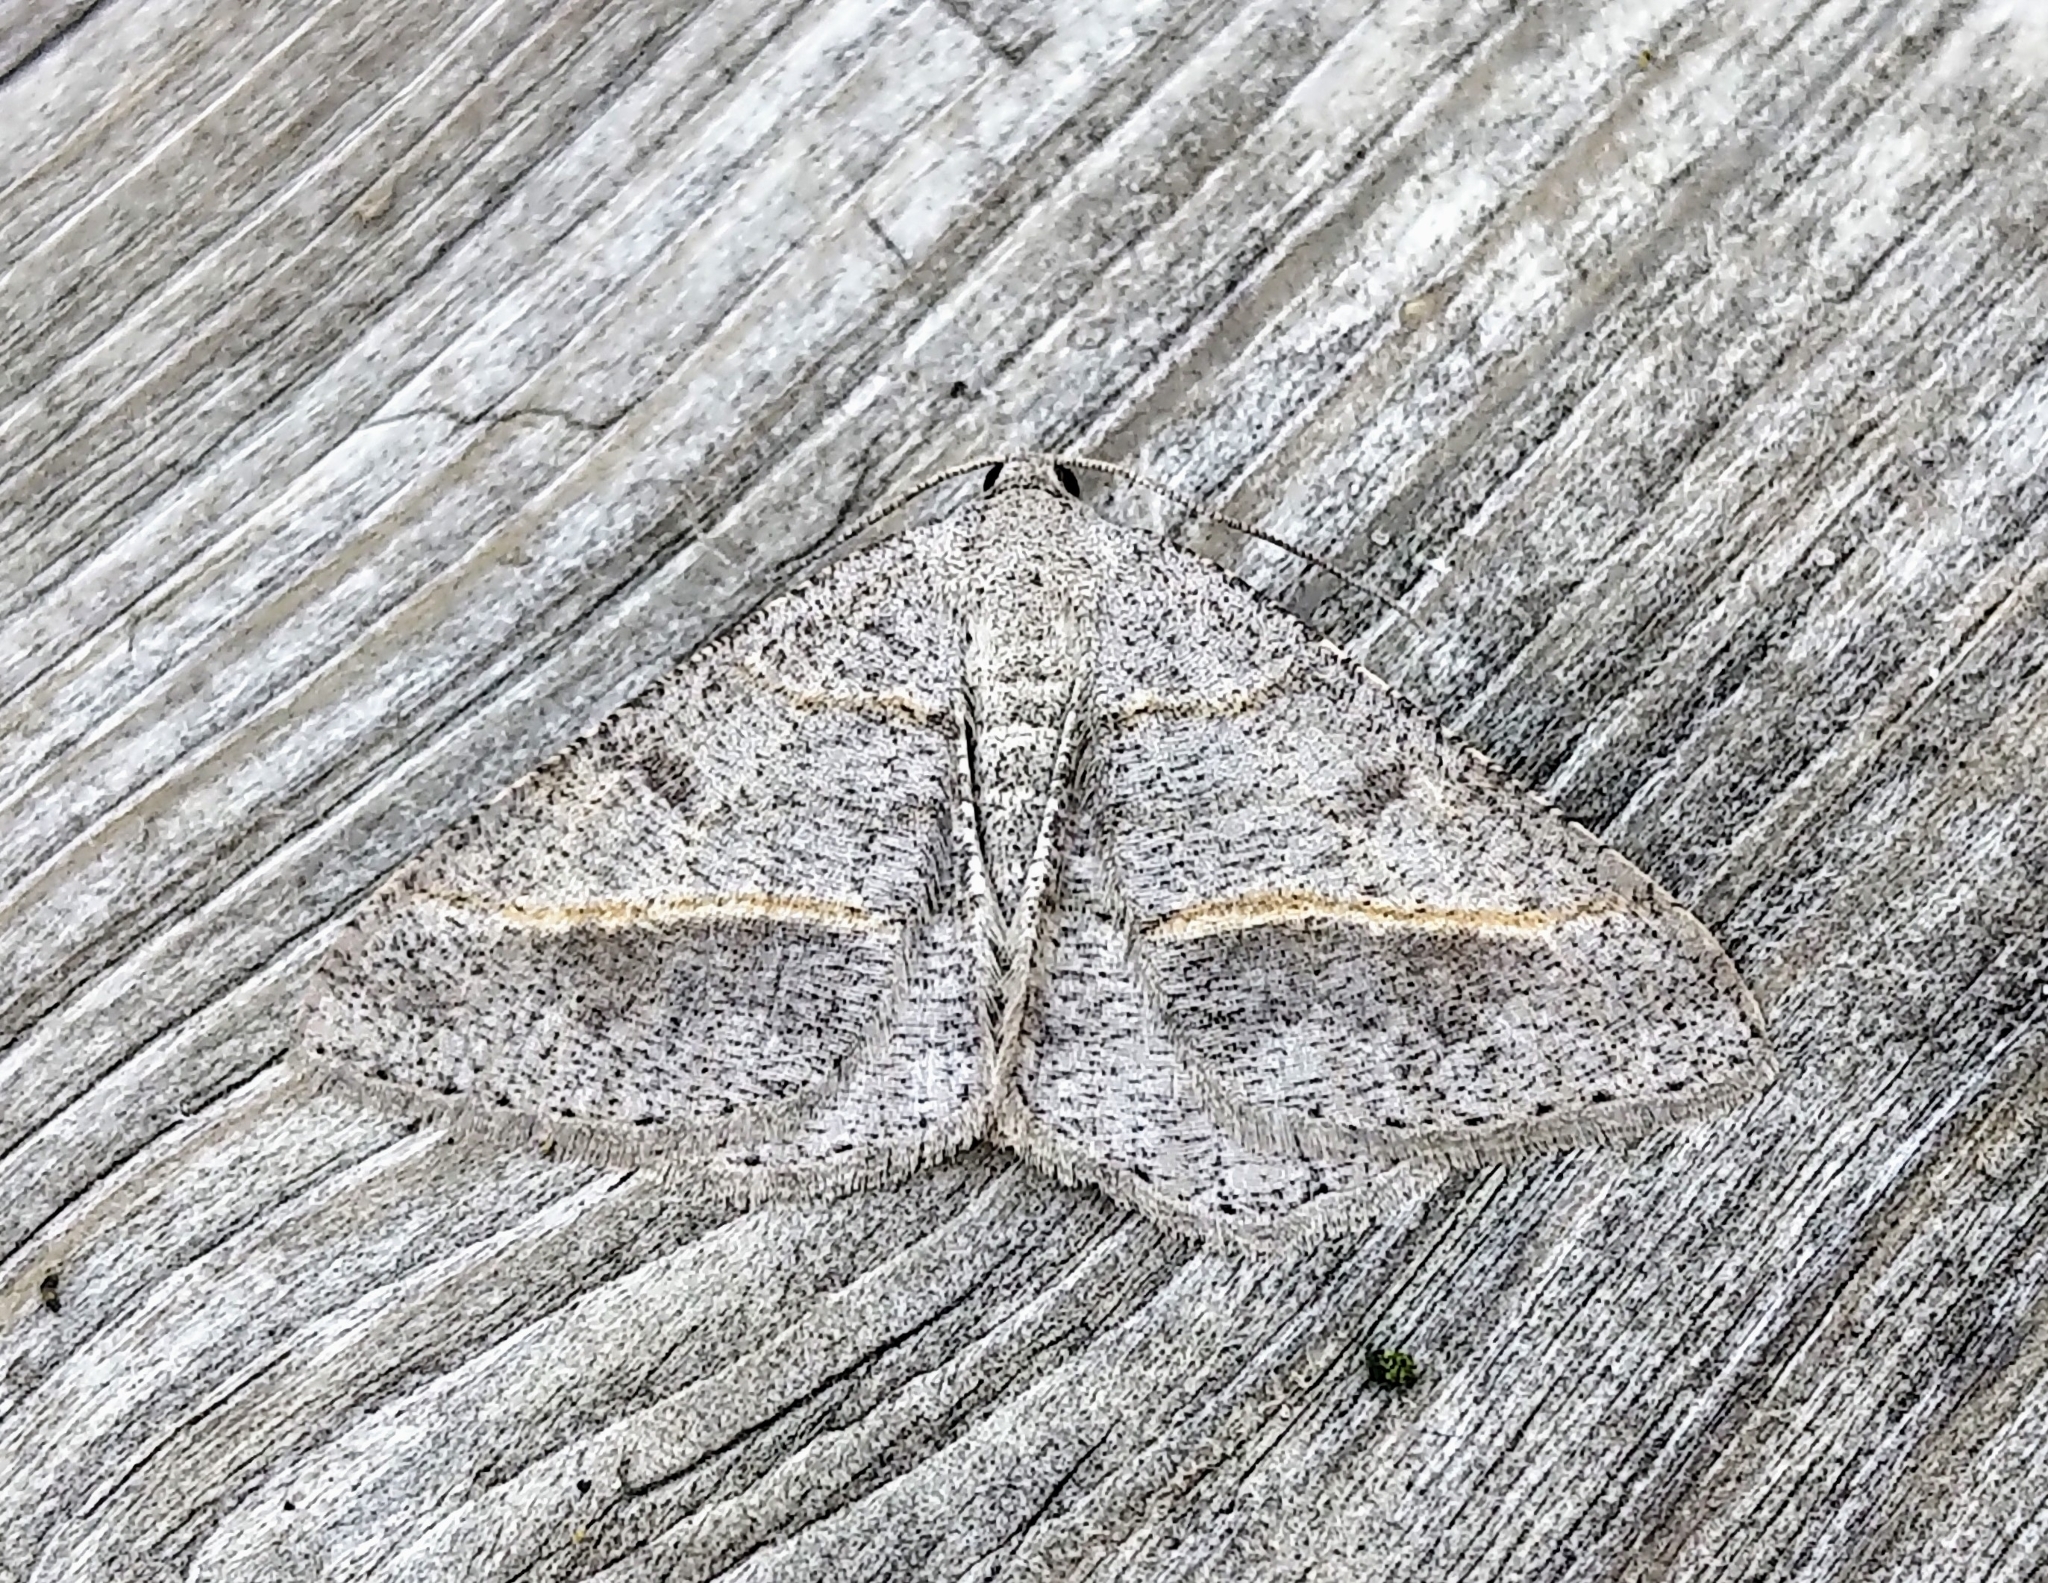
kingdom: Animalia
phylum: Arthropoda
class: Insecta
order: Lepidoptera
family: Geometridae
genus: Digrammia
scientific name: Digrammia neptaria
